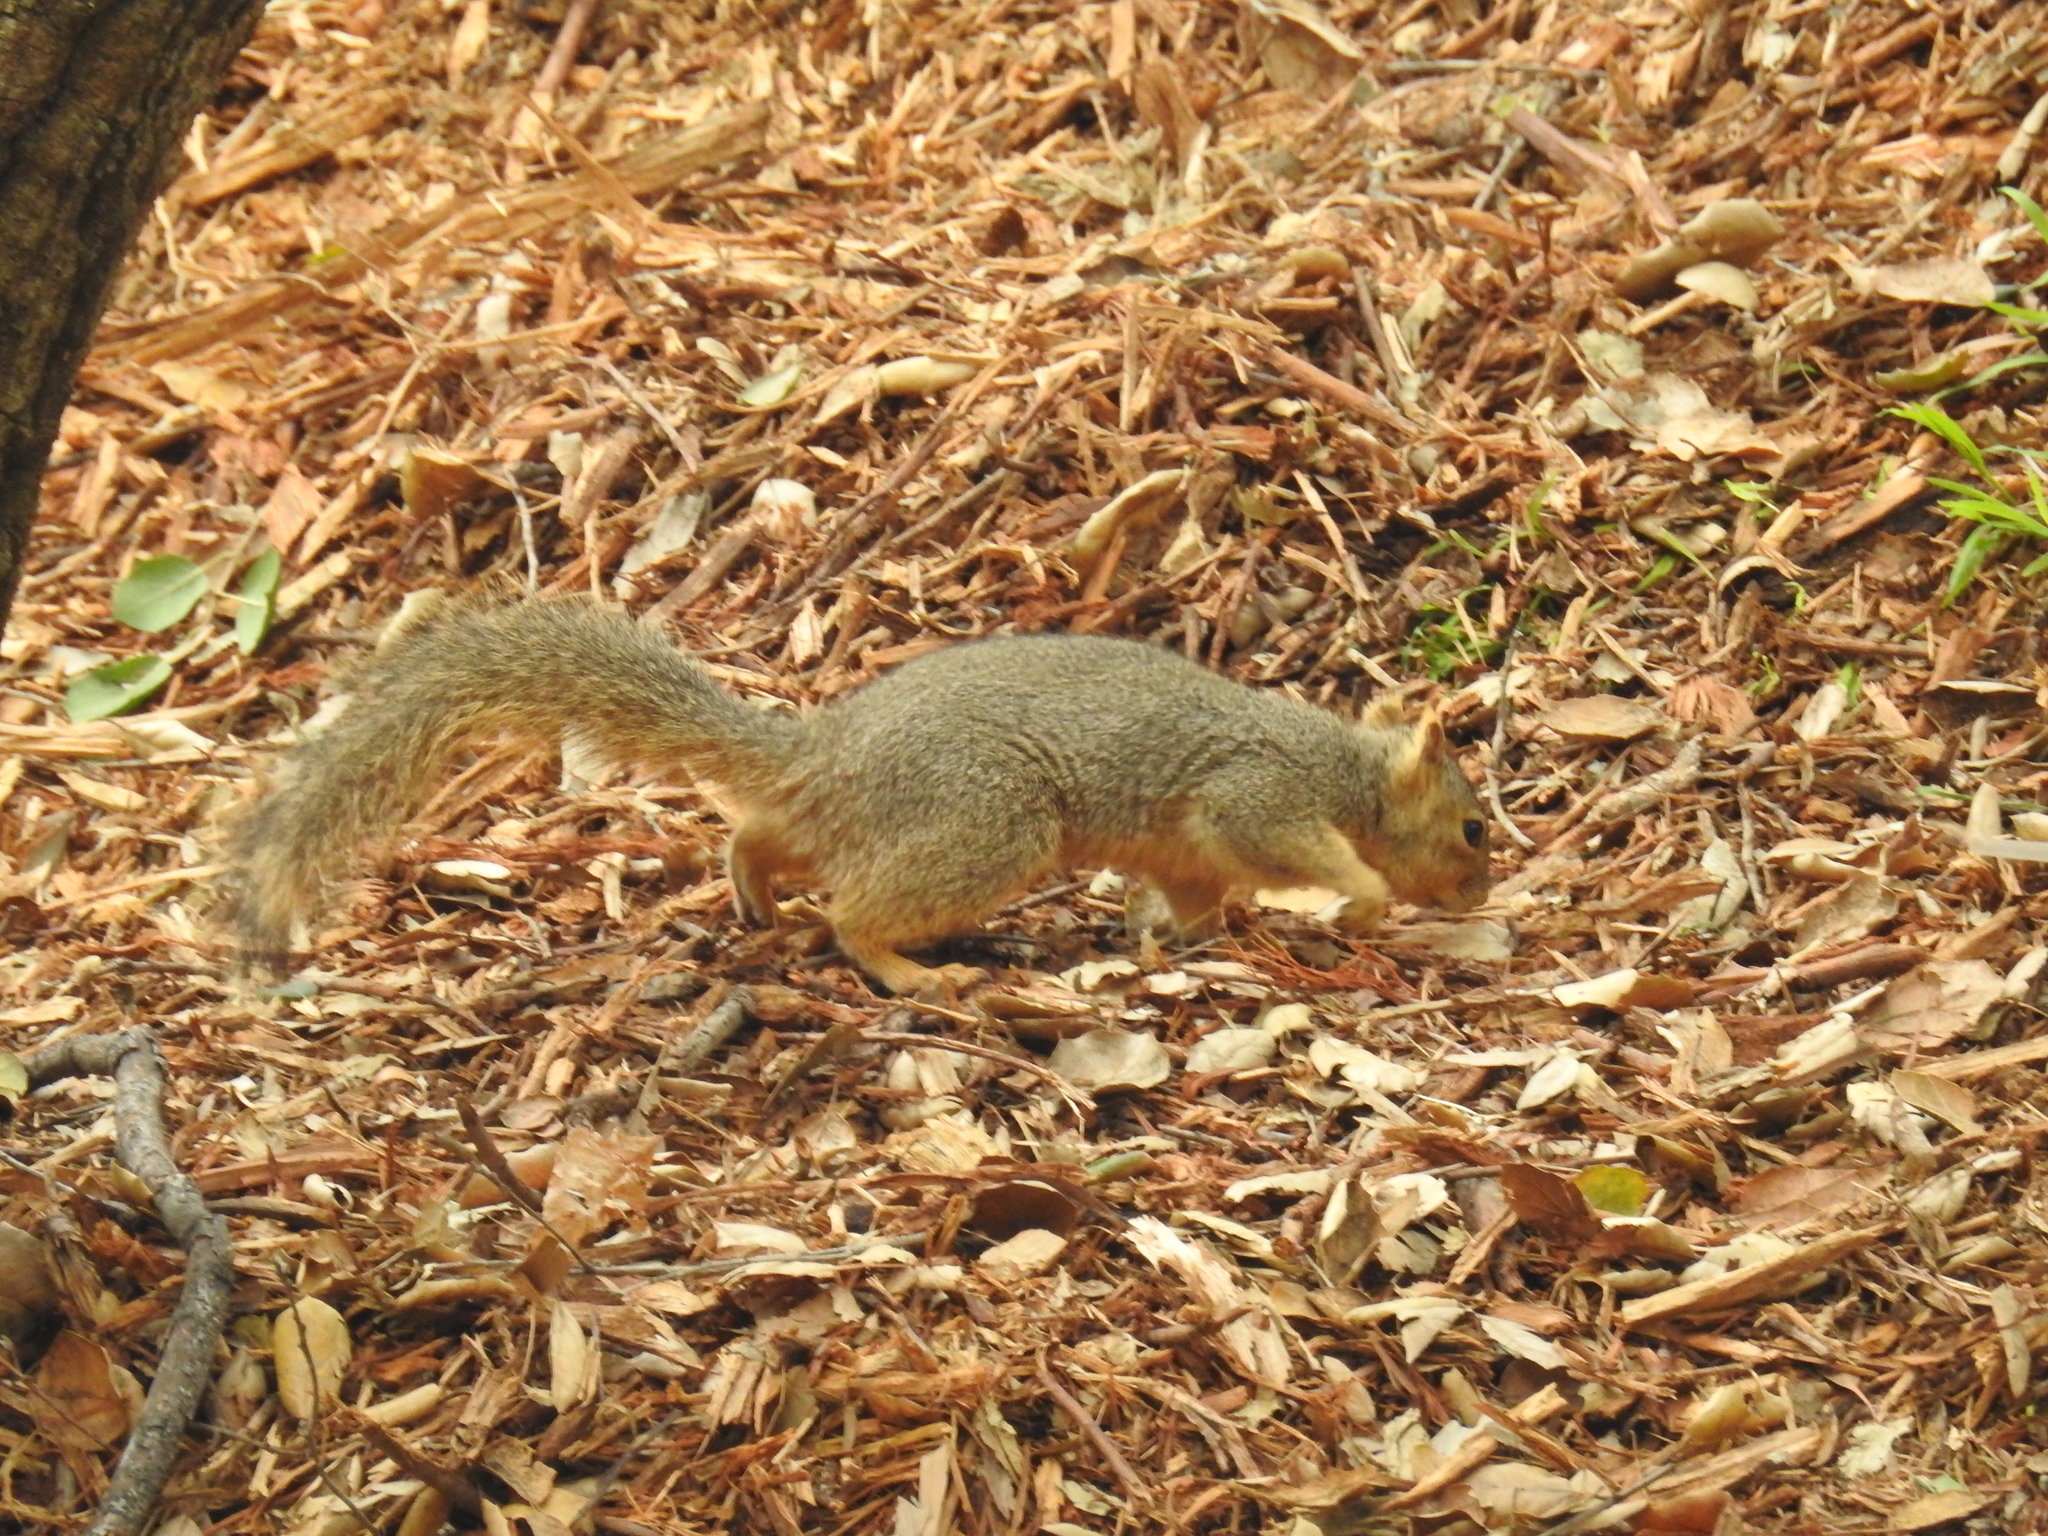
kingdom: Animalia
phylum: Chordata
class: Mammalia
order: Rodentia
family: Sciuridae
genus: Sciurus
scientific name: Sciurus niger
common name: Fox squirrel
